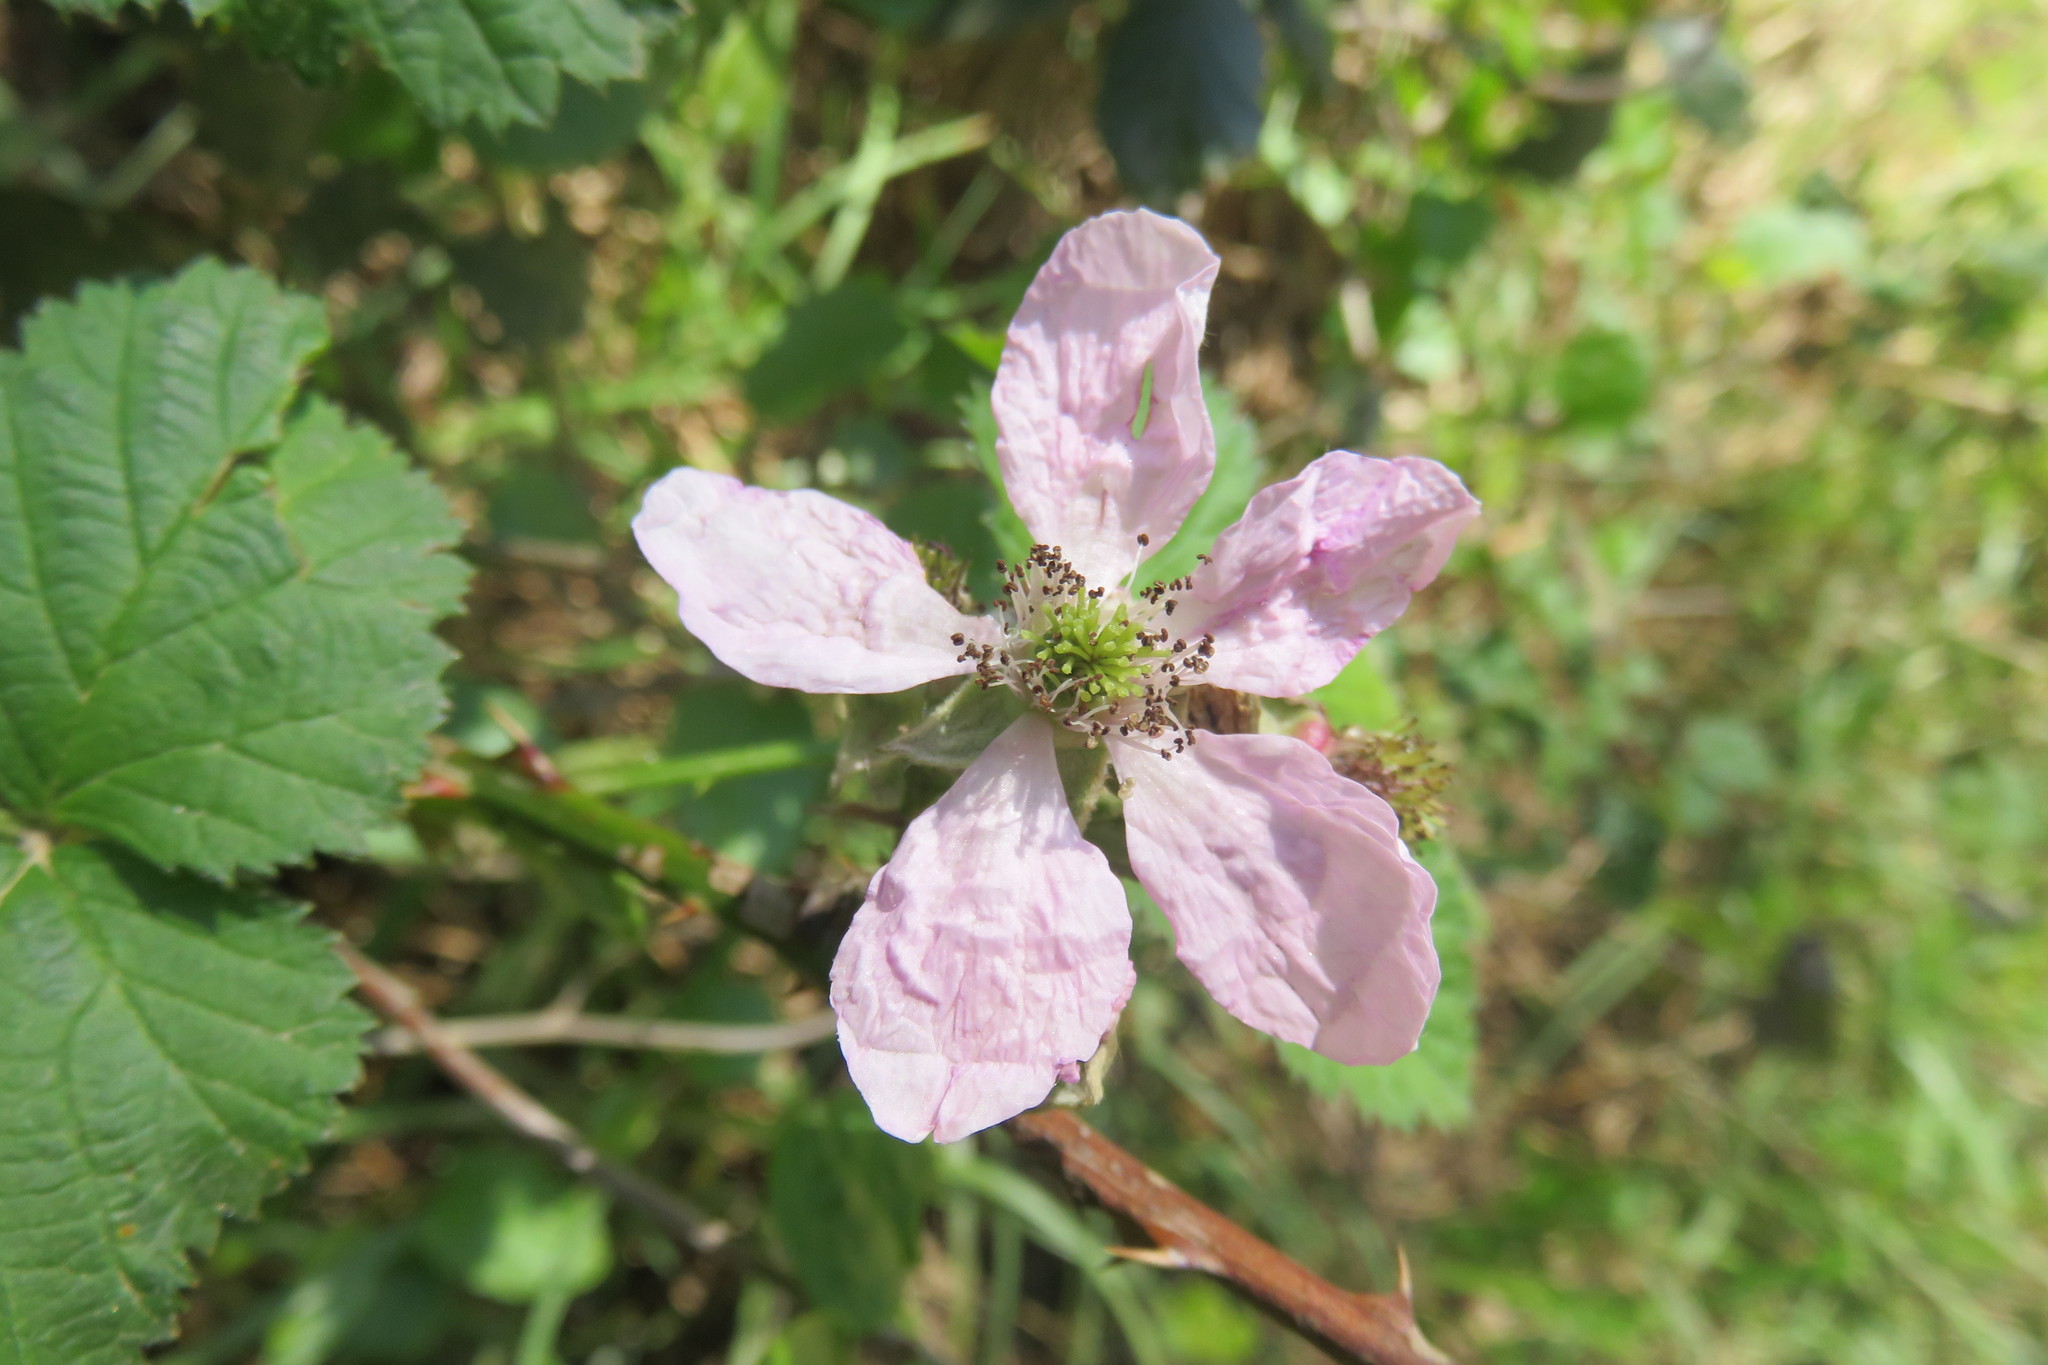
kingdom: Plantae
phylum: Tracheophyta
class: Magnoliopsida
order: Rosales
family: Rosaceae
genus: Rubus
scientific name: Rubus ulmifolius
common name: Elmleaf blackberry
